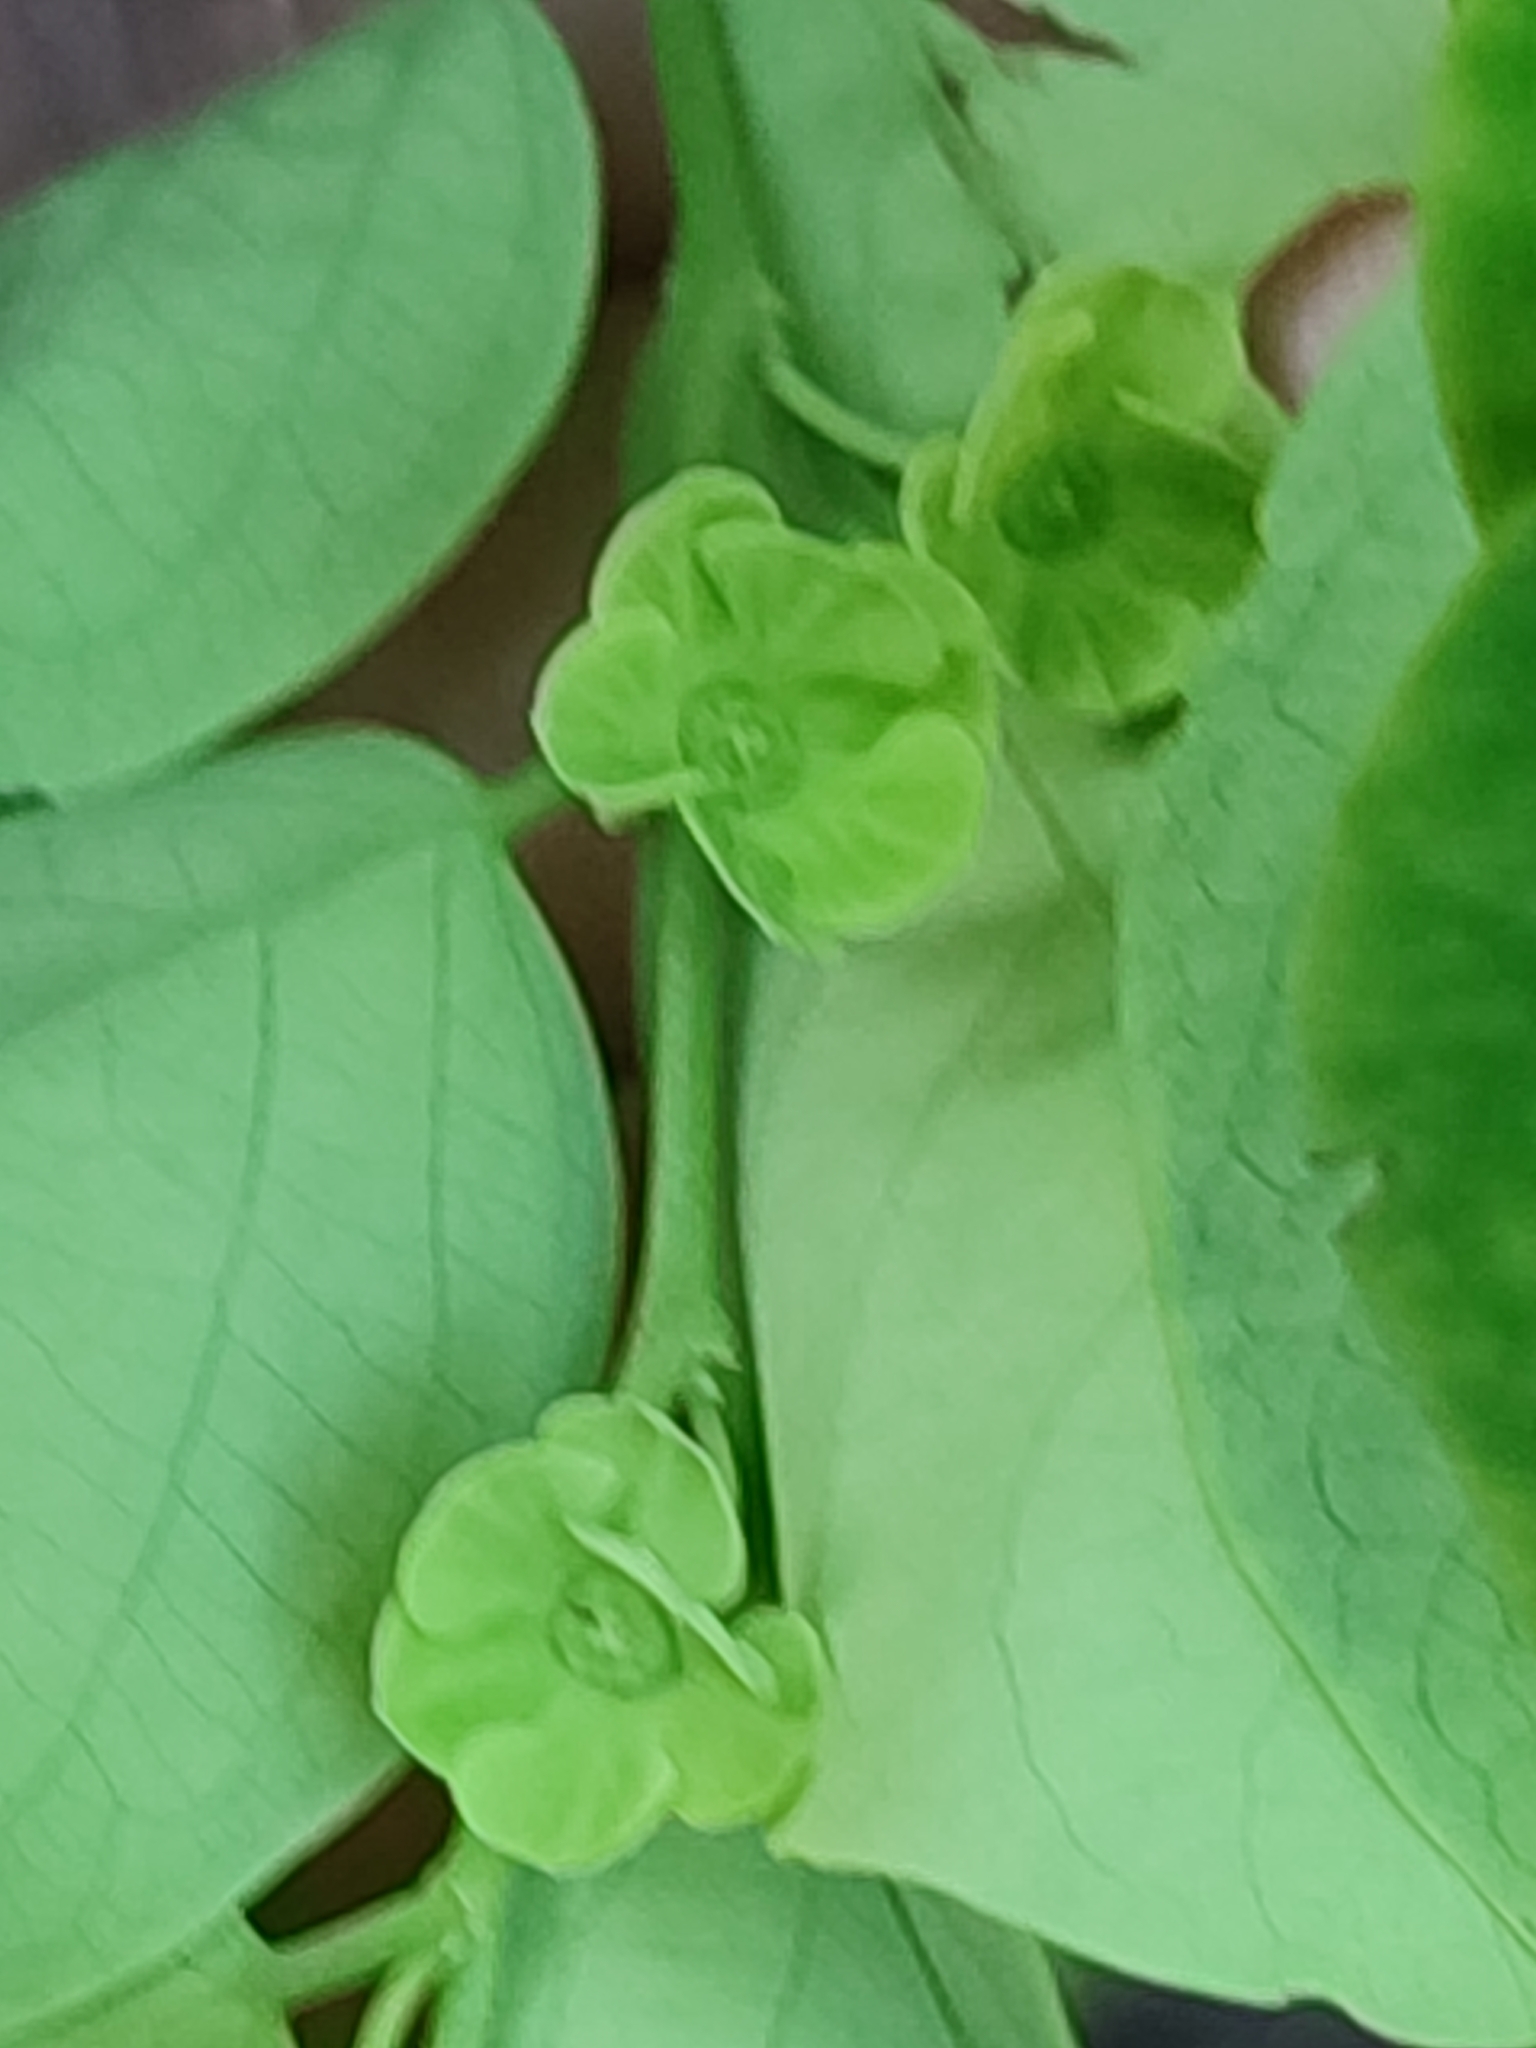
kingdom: Plantae
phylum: Tracheophyta
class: Magnoliopsida
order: Malpighiales
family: Phyllanthaceae
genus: Breynia
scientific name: Breynia disticha
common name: Snowbush
